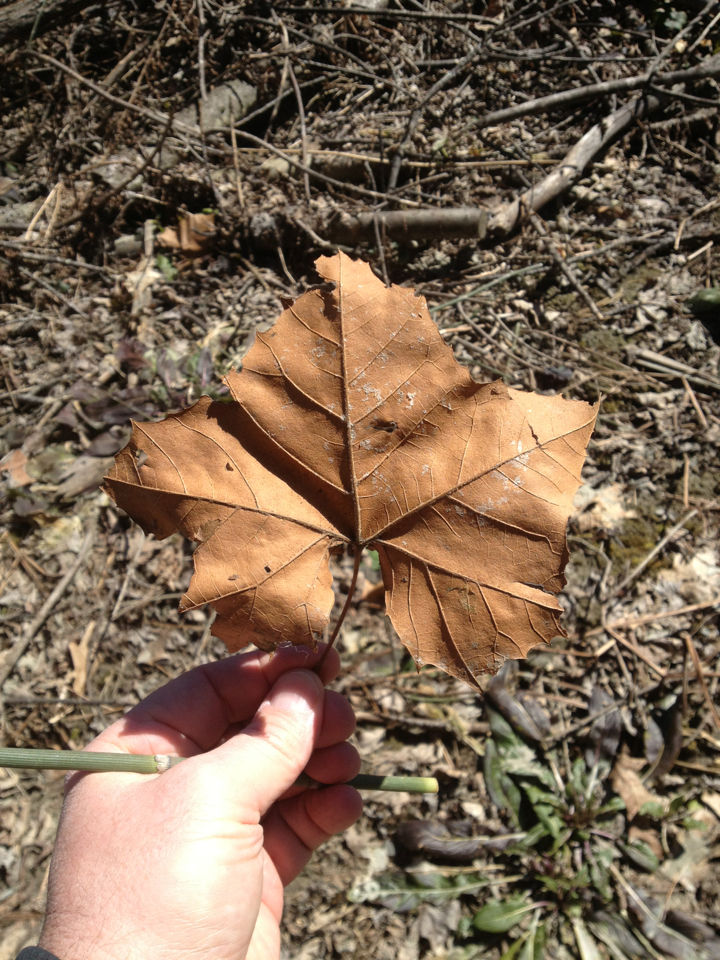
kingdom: Plantae
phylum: Tracheophyta
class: Magnoliopsida
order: Proteales
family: Platanaceae
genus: Platanus
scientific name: Platanus occidentalis
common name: American sycamore
